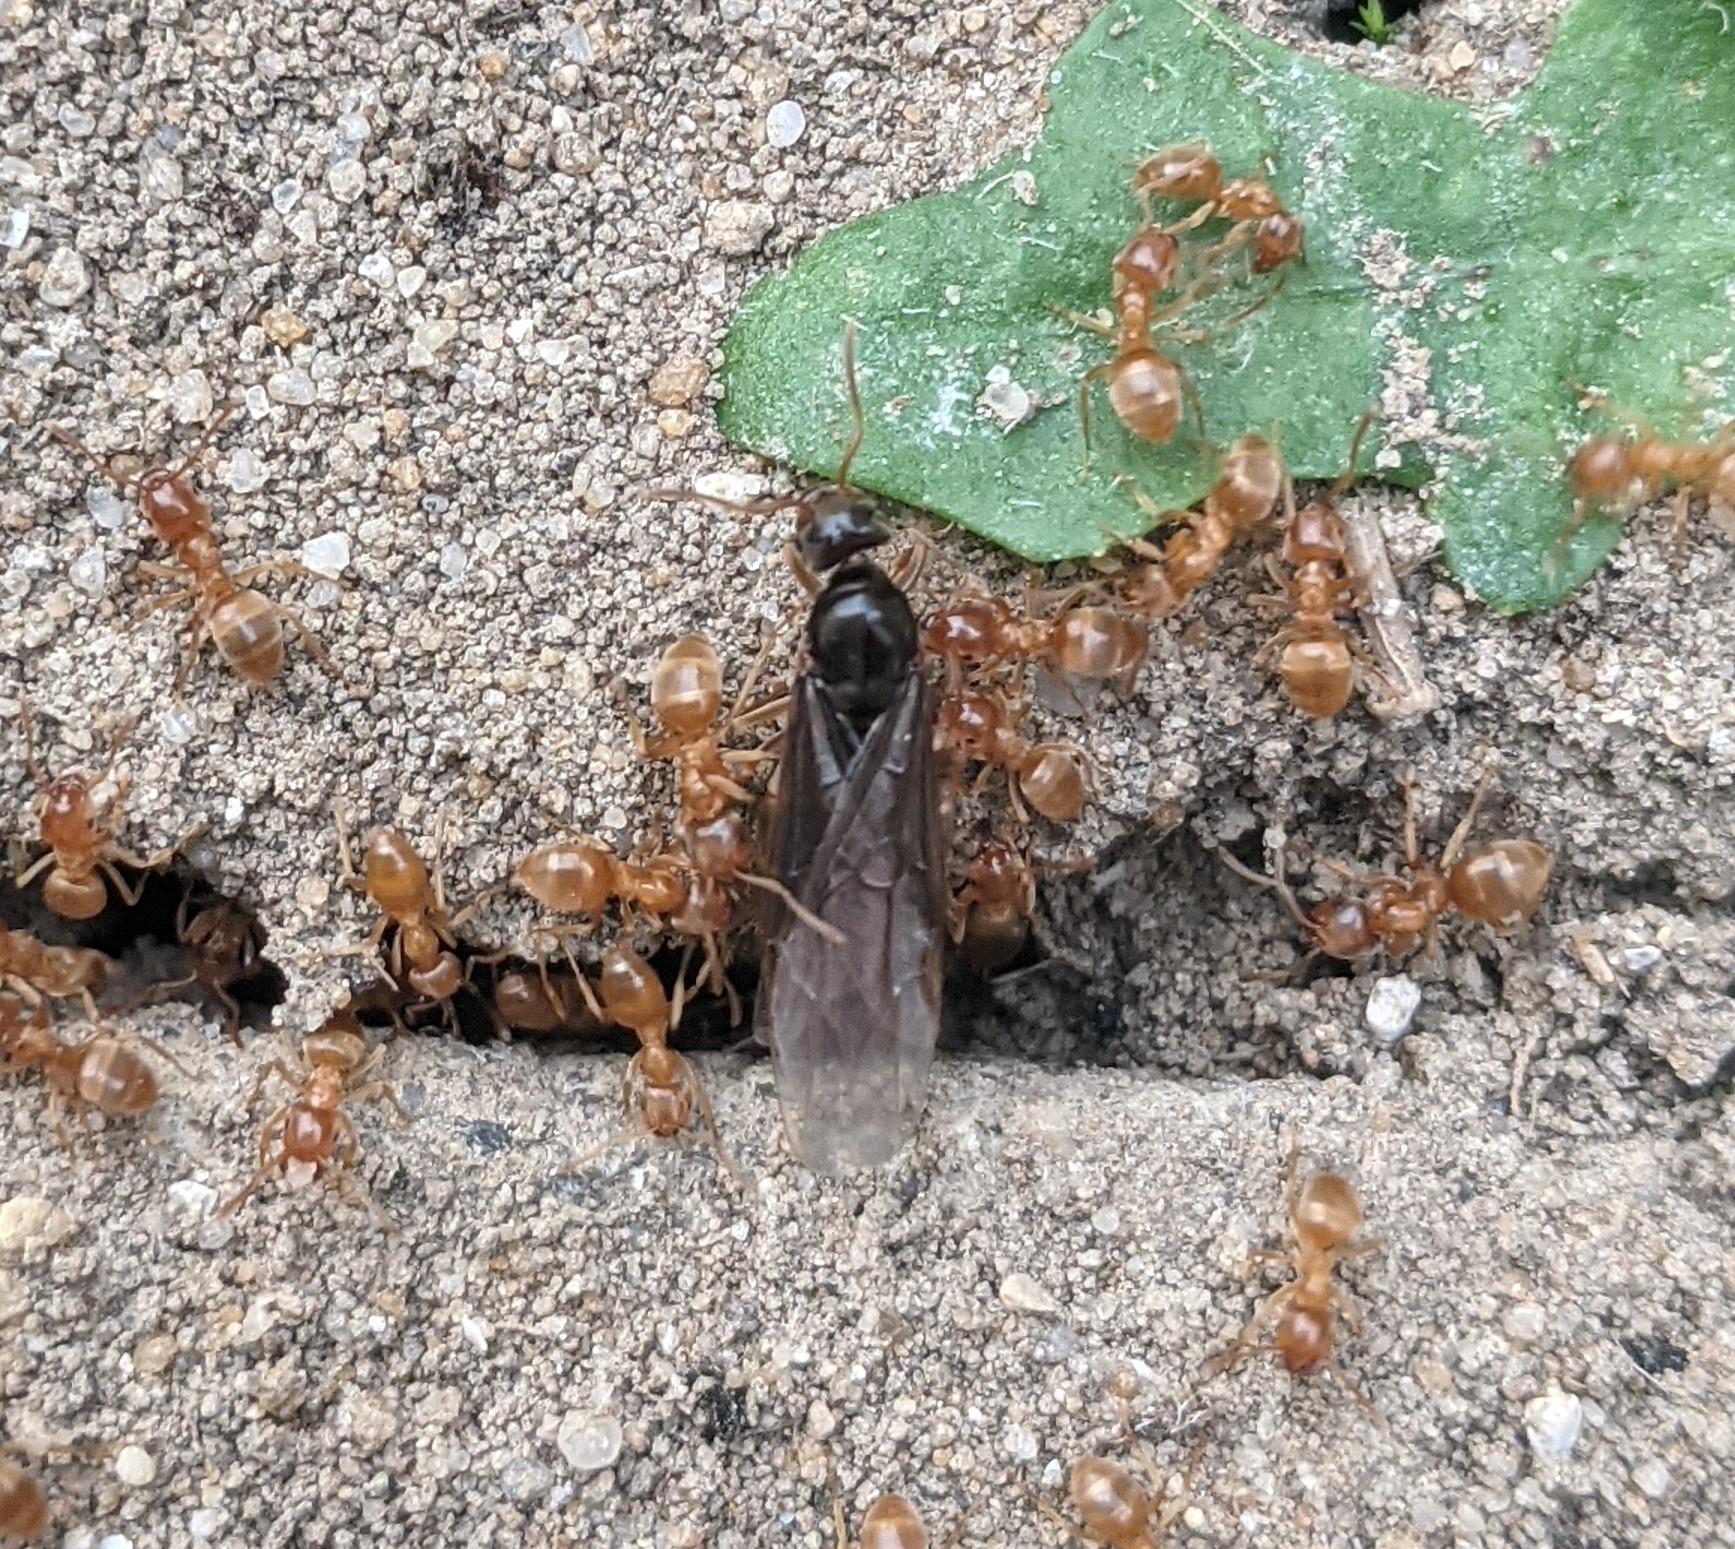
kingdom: Animalia
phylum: Arthropoda
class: Insecta
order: Hymenoptera
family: Formicidae
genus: Lasius
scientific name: Lasius flavus
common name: Blond field ant
